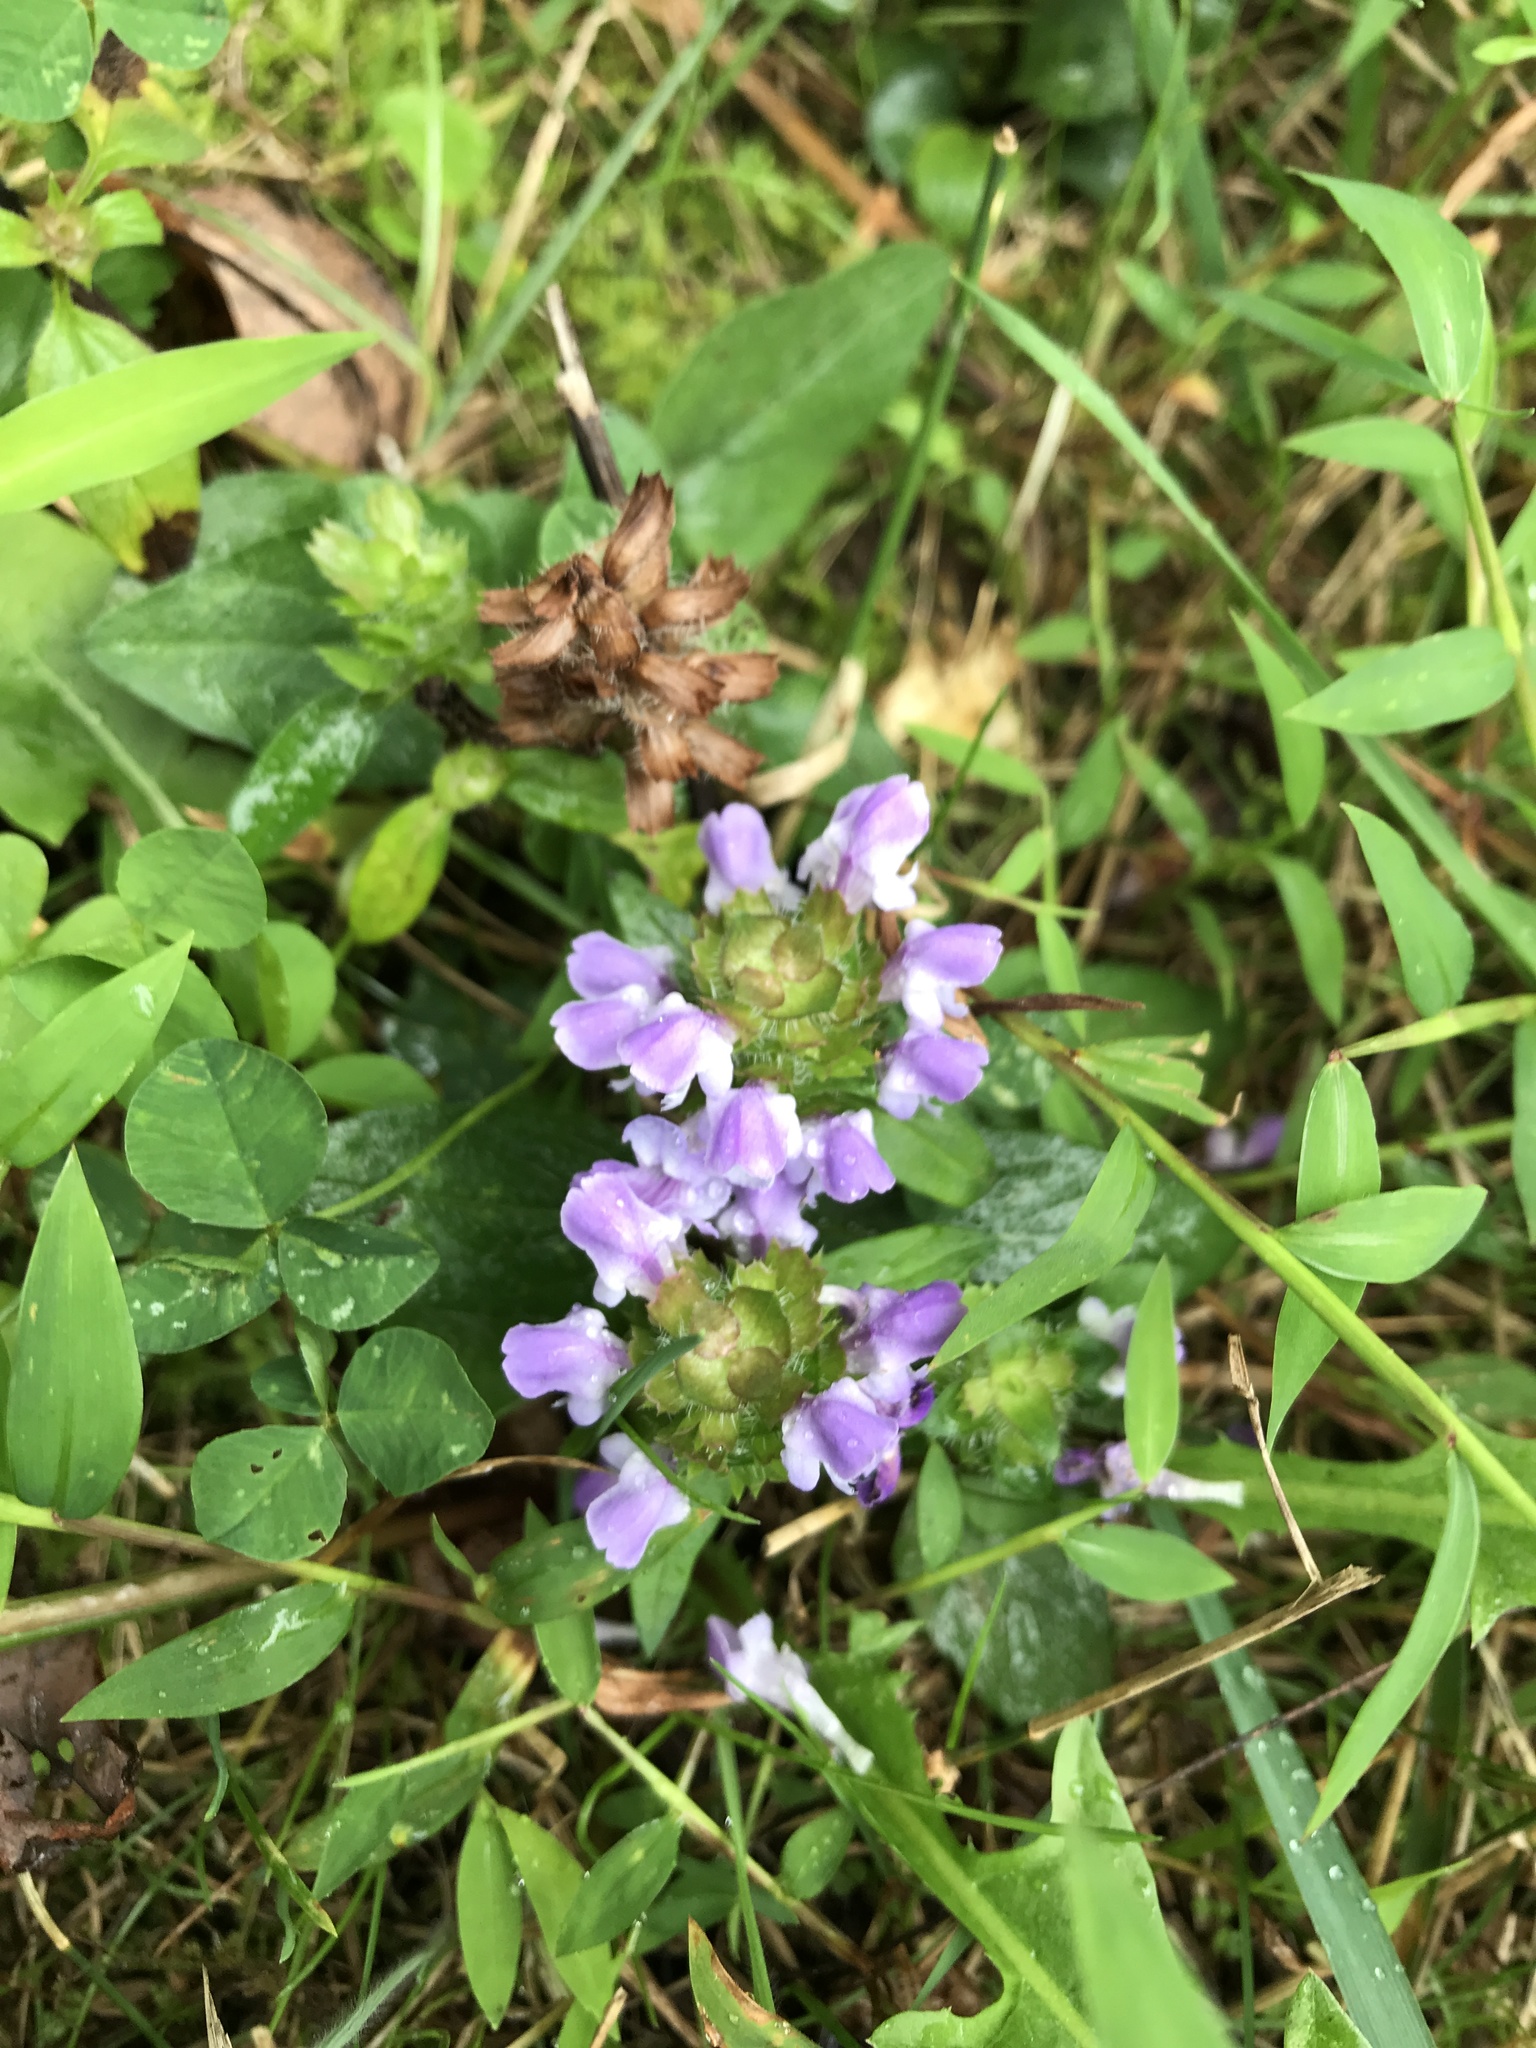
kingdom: Plantae
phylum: Tracheophyta
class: Magnoliopsida
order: Lamiales
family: Lamiaceae
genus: Prunella
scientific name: Prunella vulgaris
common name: Heal-all
